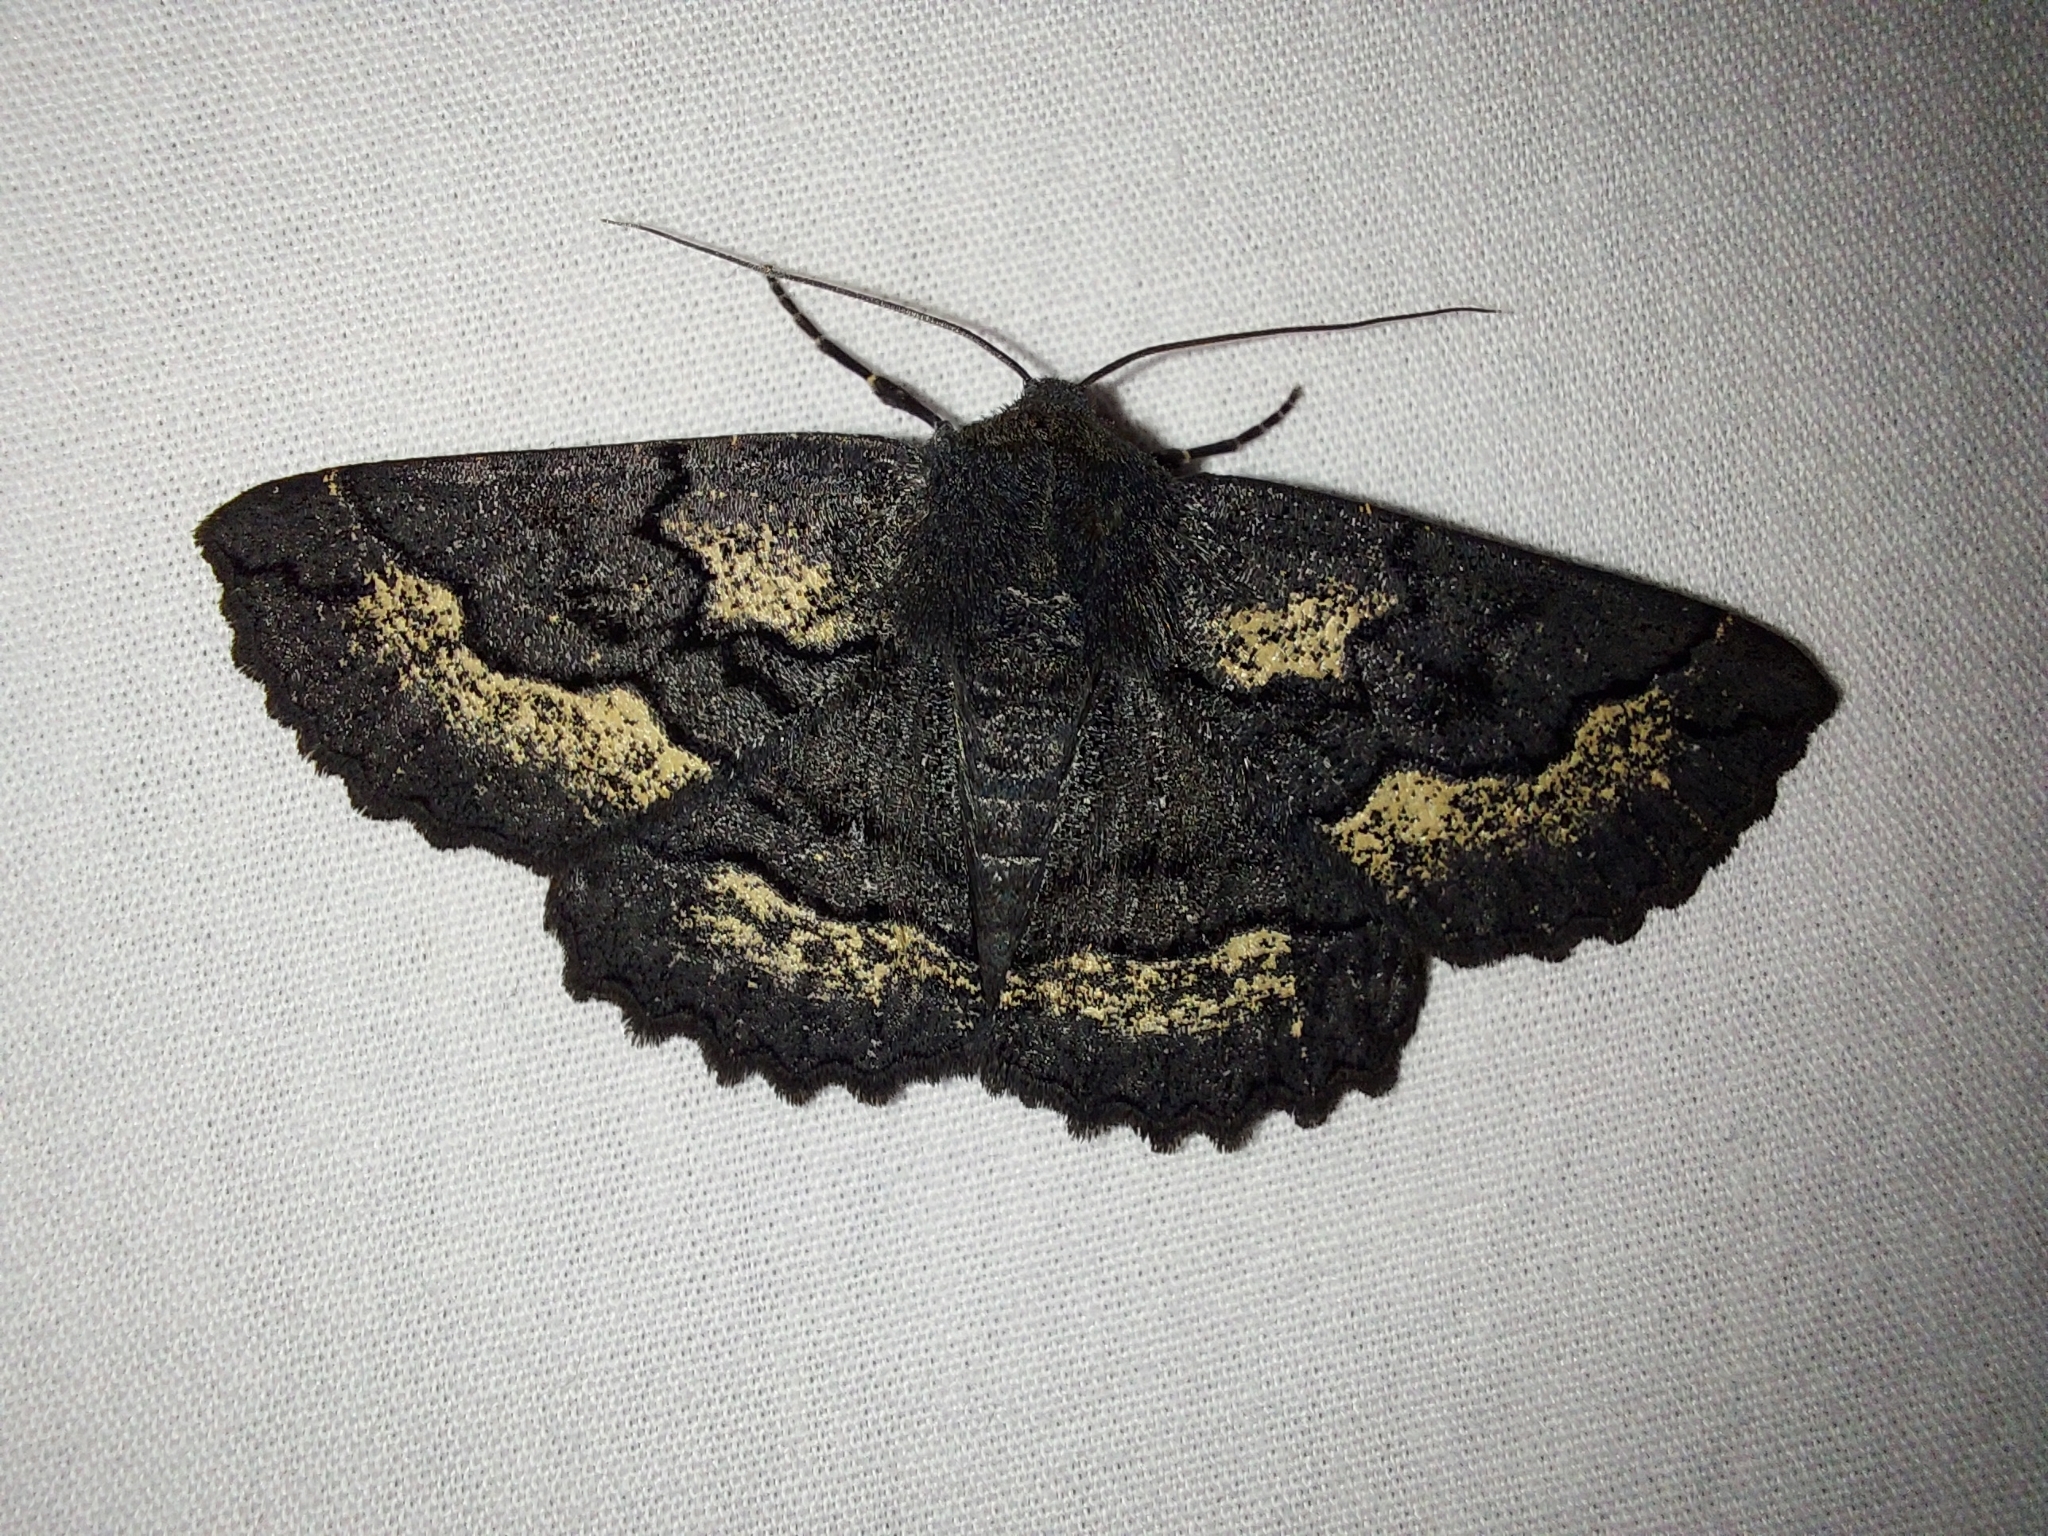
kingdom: Animalia
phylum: Arthropoda
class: Insecta
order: Lepidoptera
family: Geometridae
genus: Melanodes
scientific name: Melanodes anthracitaria
